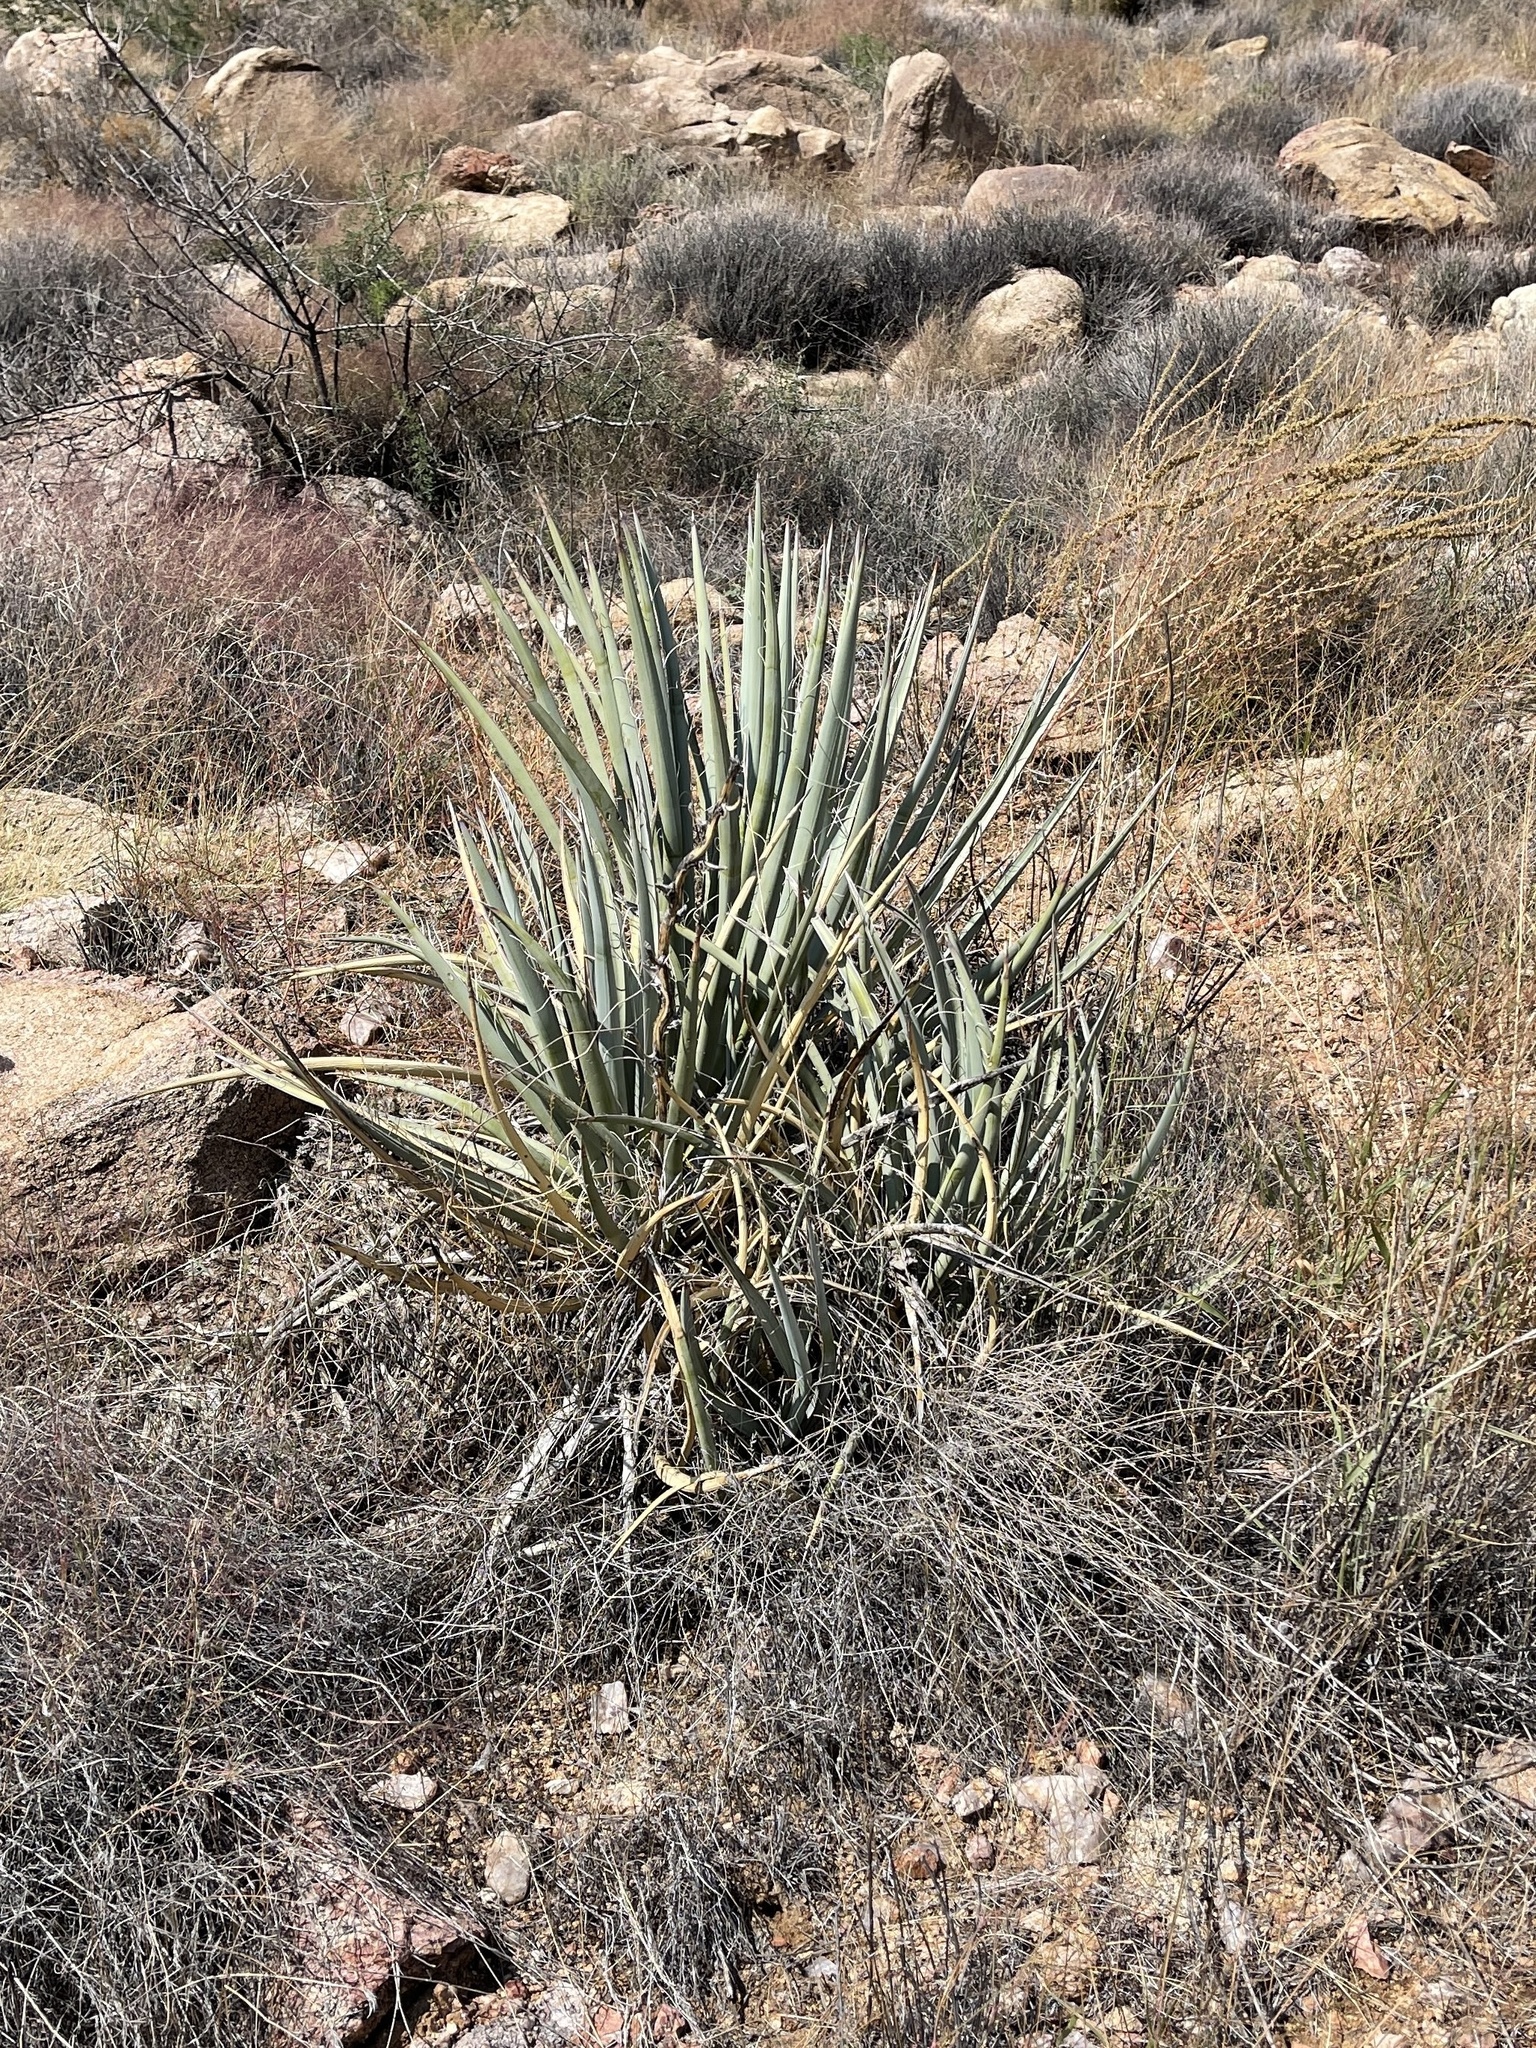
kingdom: Plantae
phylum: Tracheophyta
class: Liliopsida
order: Asparagales
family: Asparagaceae
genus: Yucca
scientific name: Yucca baccata
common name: Banana yucca
